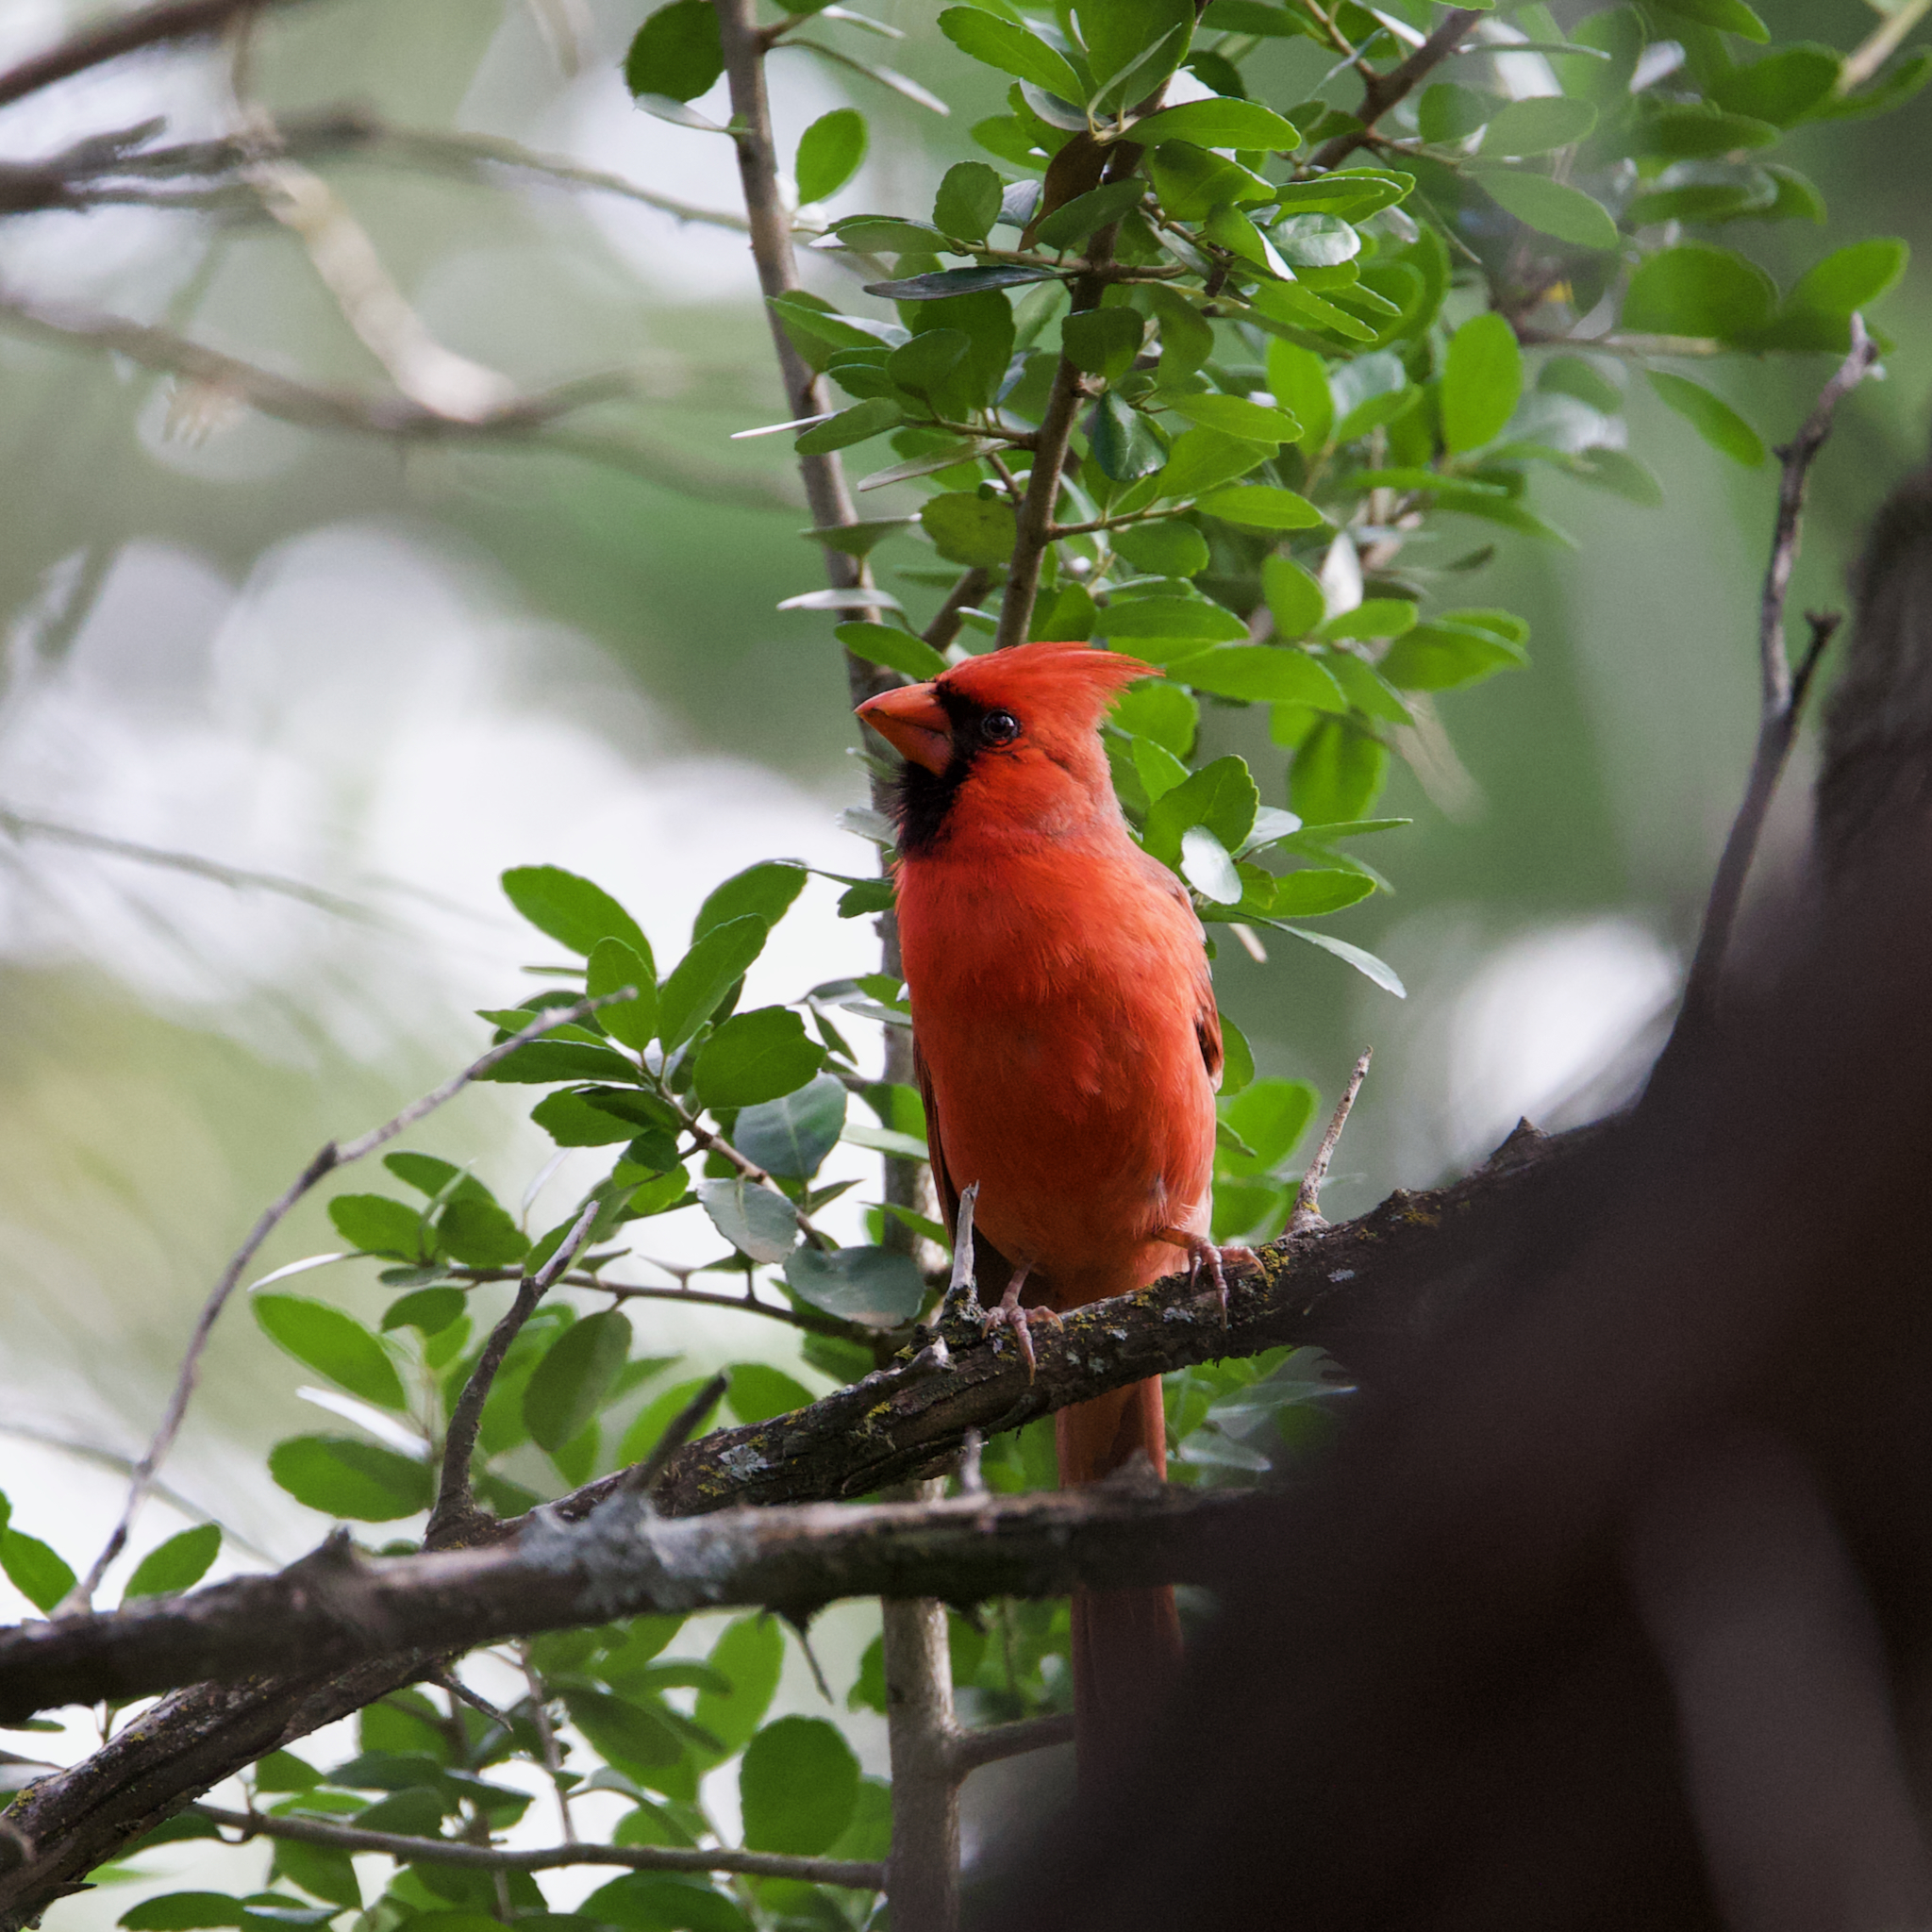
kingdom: Animalia
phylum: Chordata
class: Aves
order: Passeriformes
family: Cardinalidae
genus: Cardinalis
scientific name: Cardinalis cardinalis
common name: Northern cardinal
